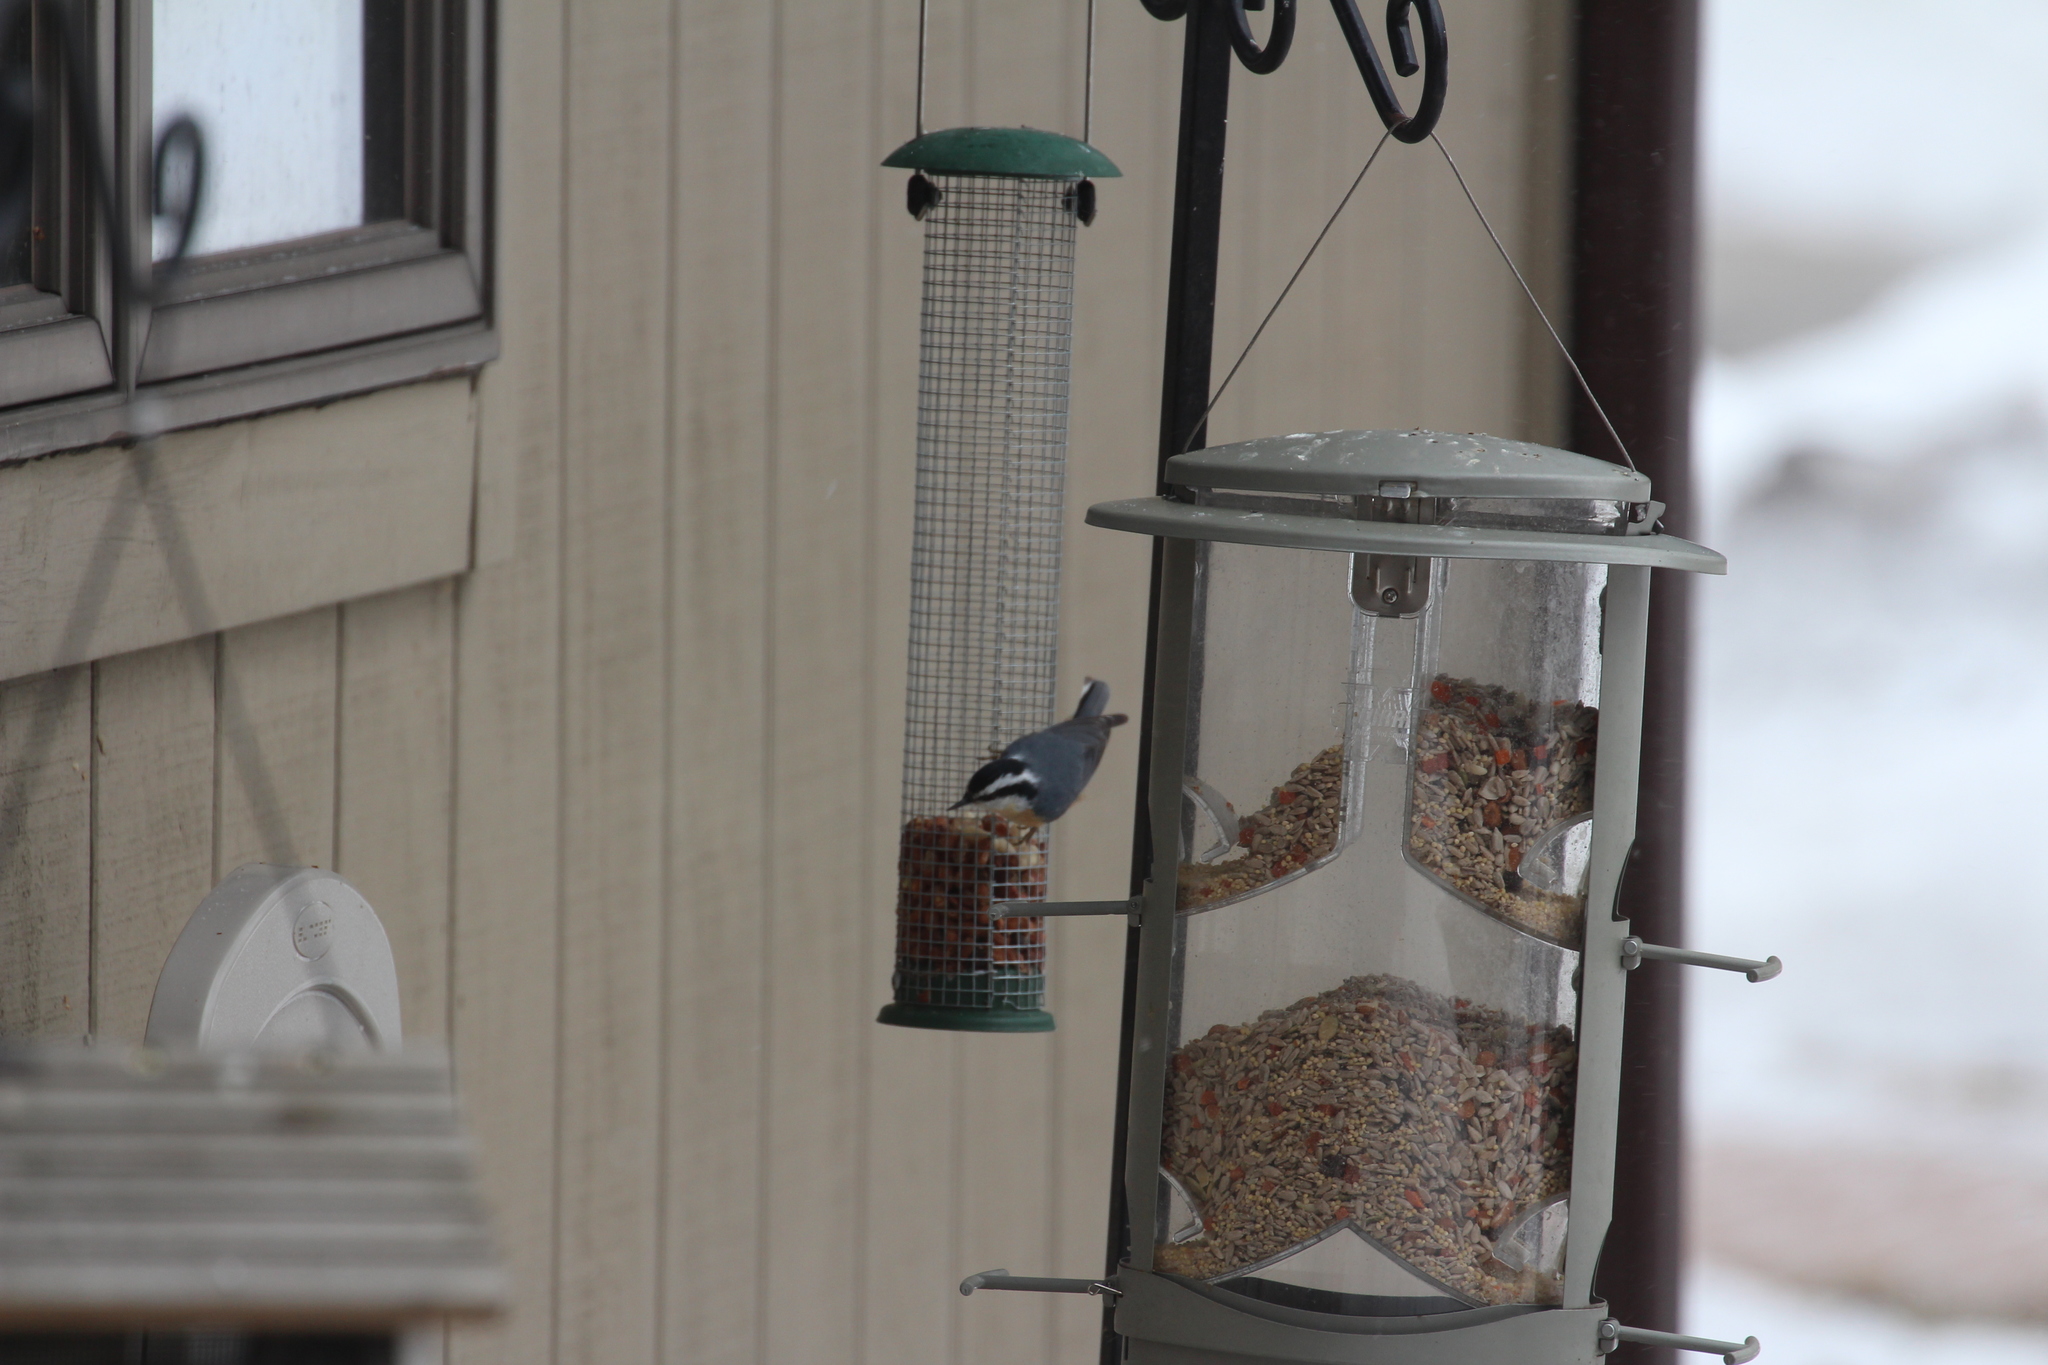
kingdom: Animalia
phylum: Chordata
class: Aves
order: Passeriformes
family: Sittidae
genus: Sitta
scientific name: Sitta canadensis
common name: Red-breasted nuthatch
